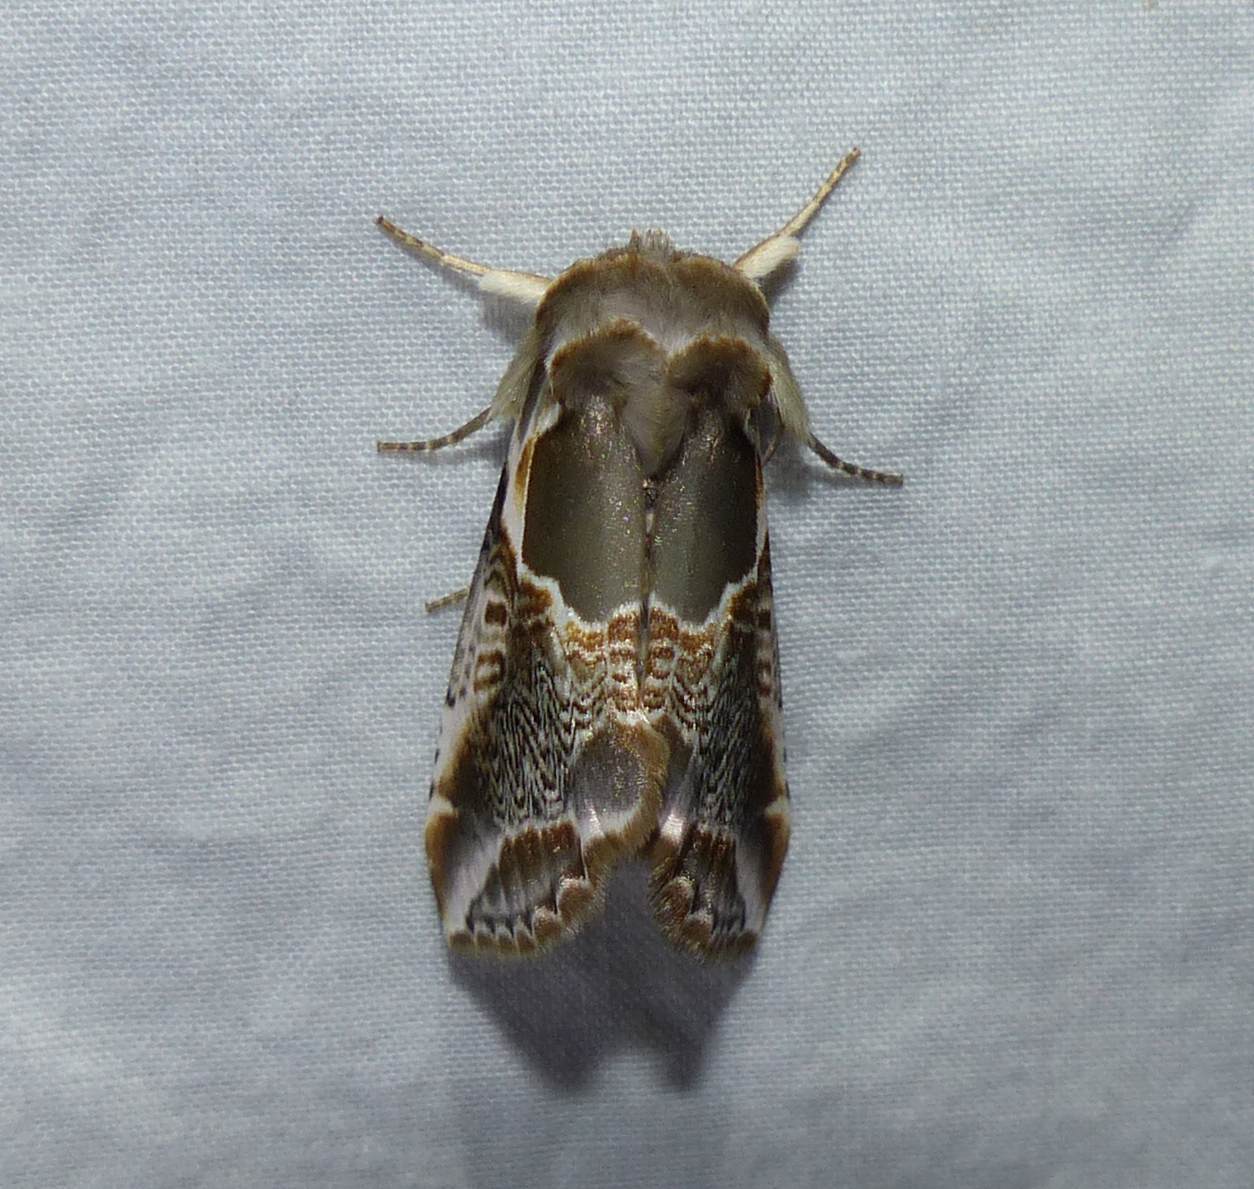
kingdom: Animalia
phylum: Arthropoda
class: Insecta
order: Lepidoptera
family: Drepanidae
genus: Habrosyne
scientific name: Habrosyne scripta
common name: Lettered habrosyne moth
